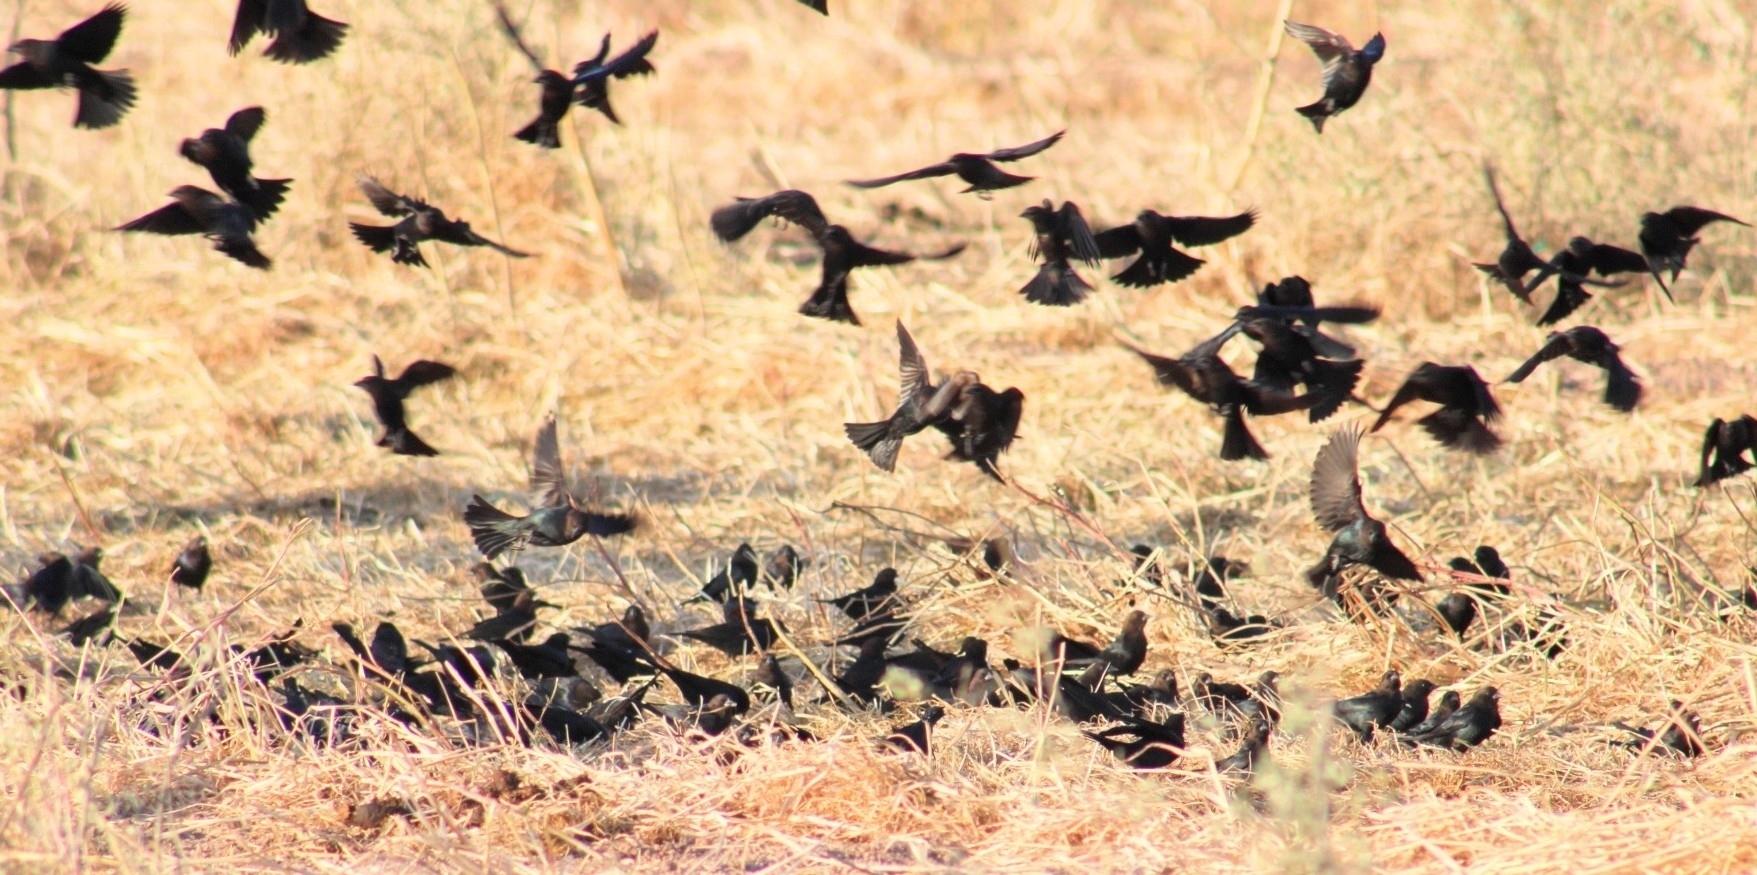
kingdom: Animalia
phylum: Chordata
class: Aves
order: Passeriformes
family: Icteridae
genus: Molothrus
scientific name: Molothrus ater
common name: Brown-headed cowbird
